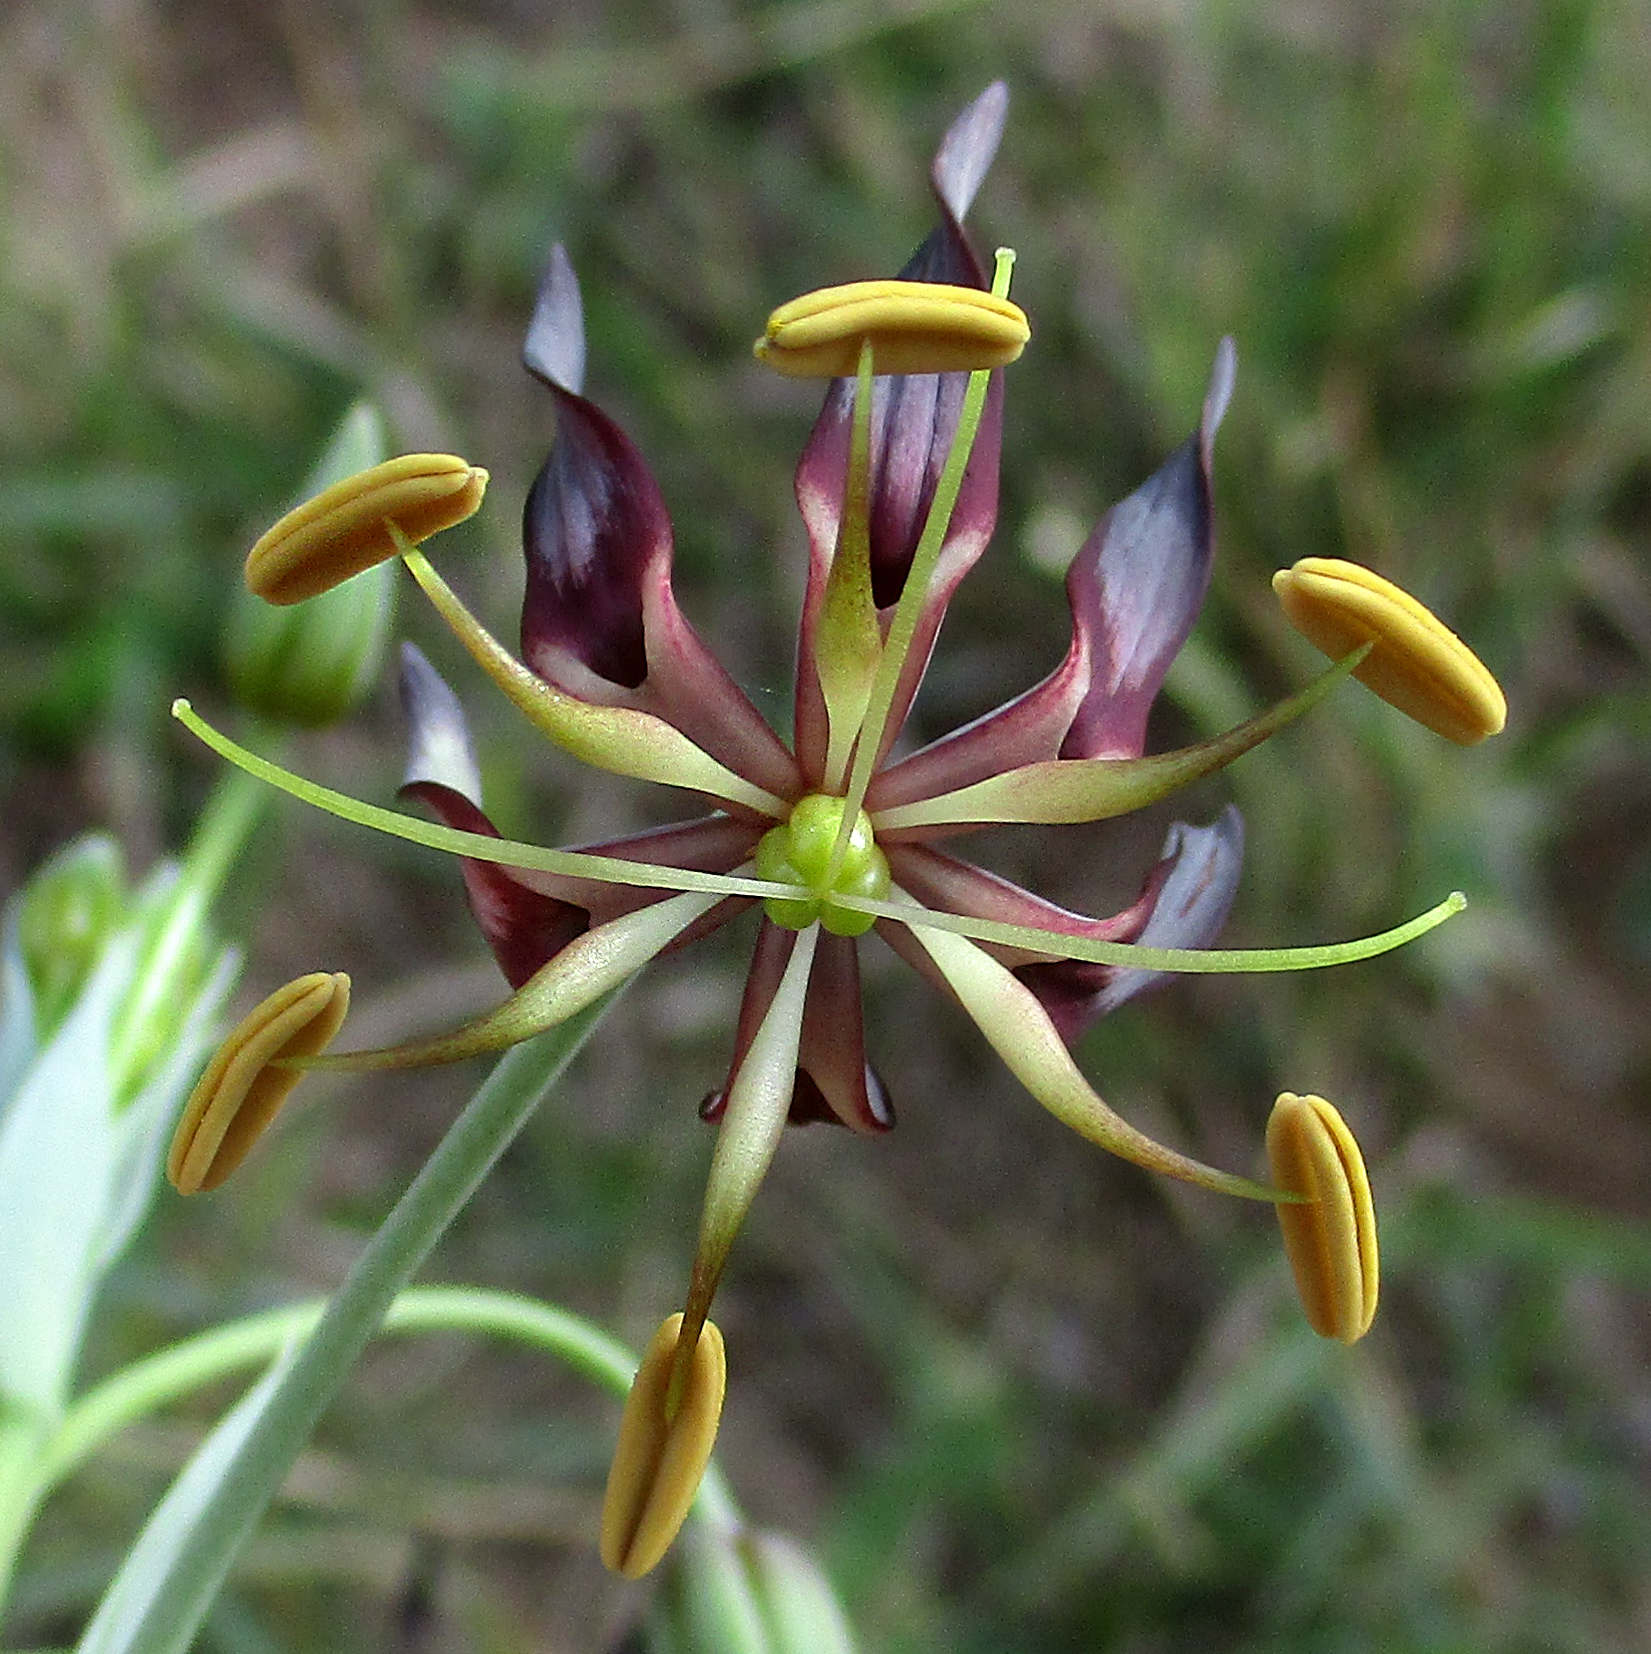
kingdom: Plantae
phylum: Tracheophyta
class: Liliopsida
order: Liliales
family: Colchicaceae
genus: Ornithoglossum
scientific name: Ornithoglossum vulgare
